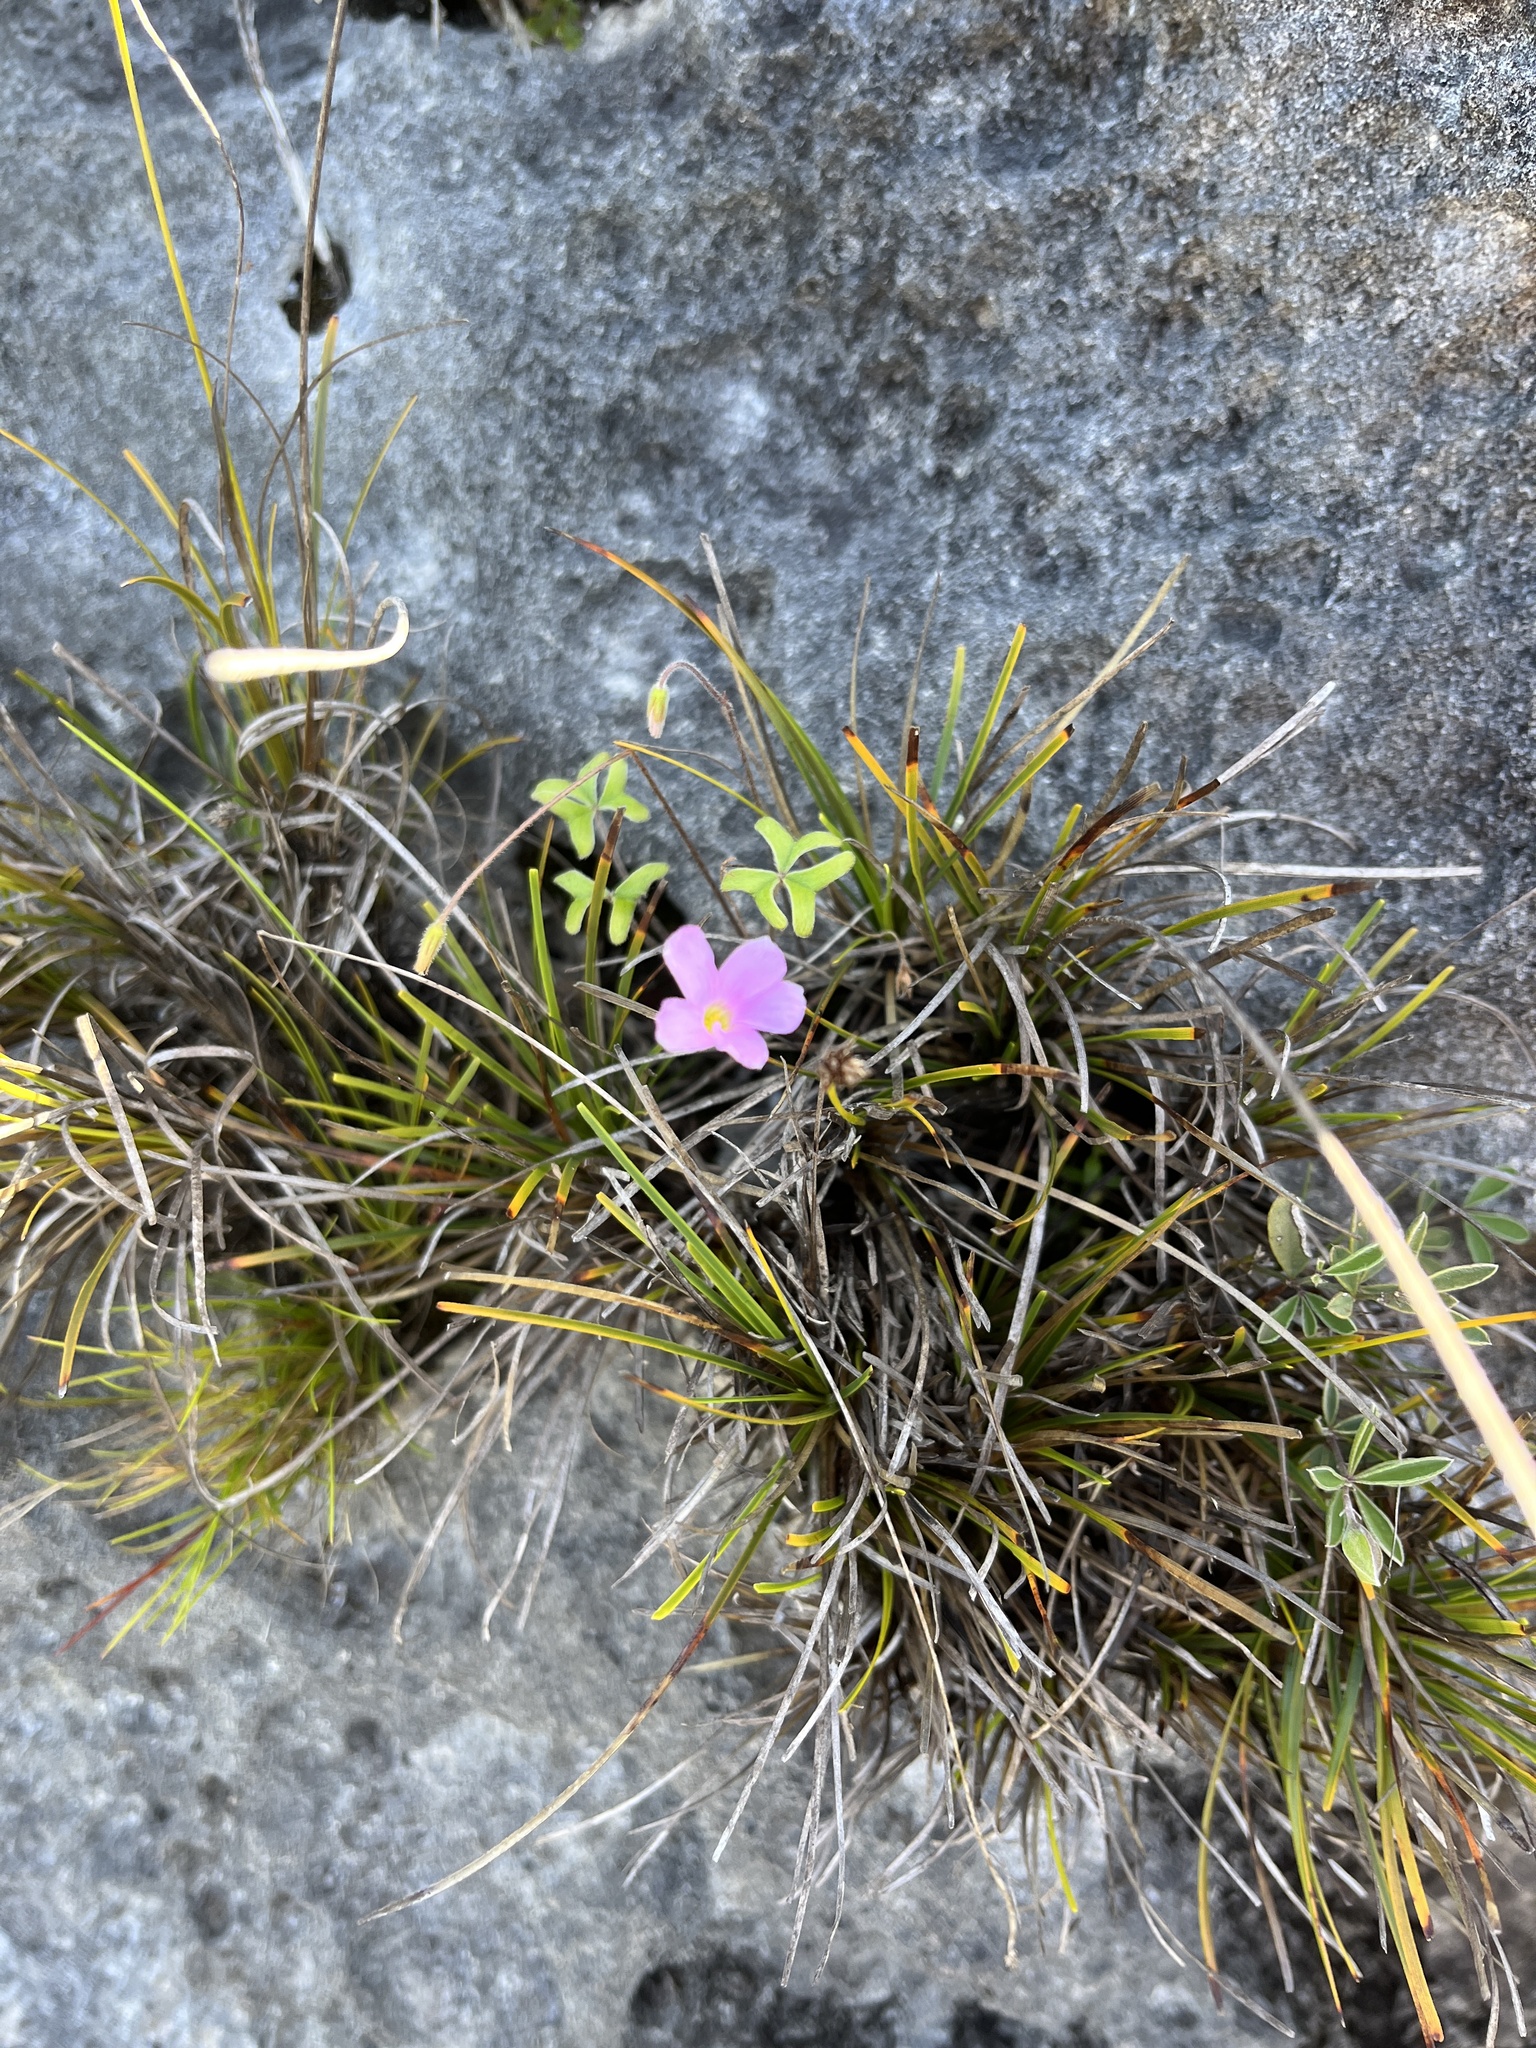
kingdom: Plantae
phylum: Tracheophyta
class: Magnoliopsida
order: Oxalidales
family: Oxalidaceae
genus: Oxalis
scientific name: Oxalis truncatula
